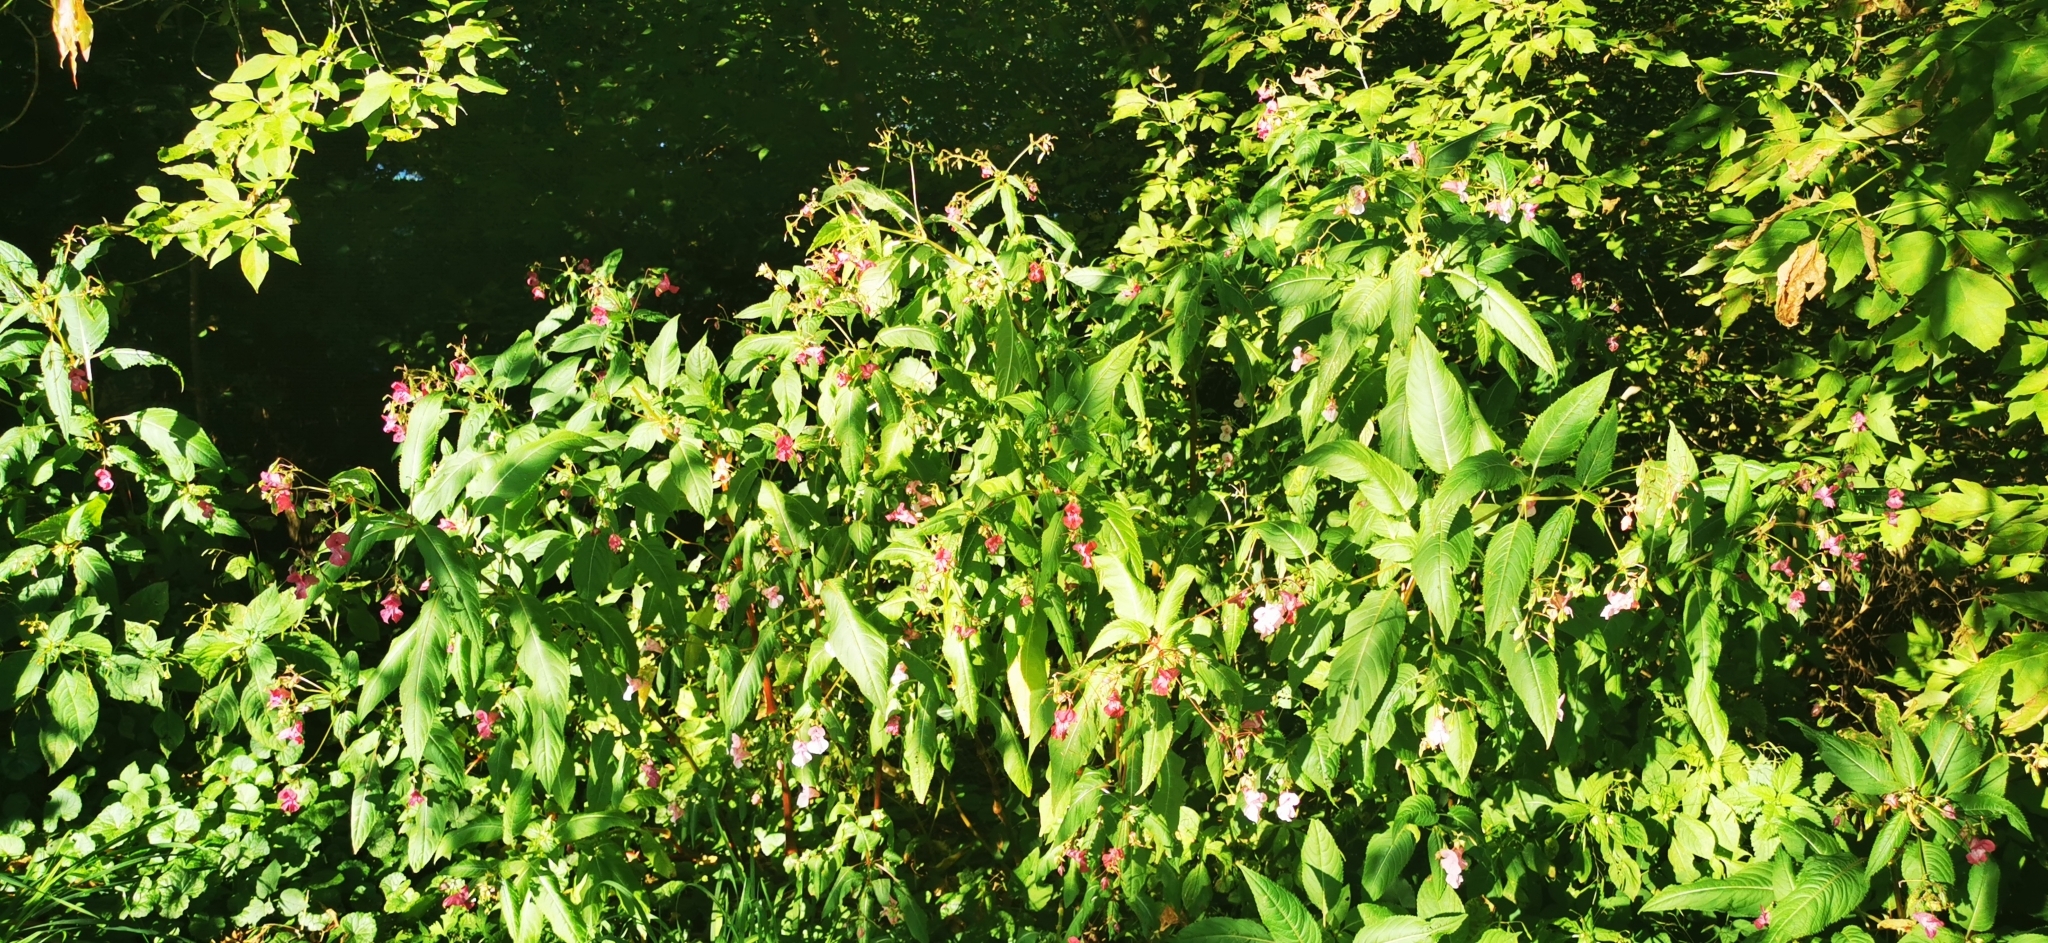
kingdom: Plantae
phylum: Tracheophyta
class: Magnoliopsida
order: Ericales
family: Balsaminaceae
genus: Impatiens
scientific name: Impatiens glandulifera
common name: Himalayan balsam
